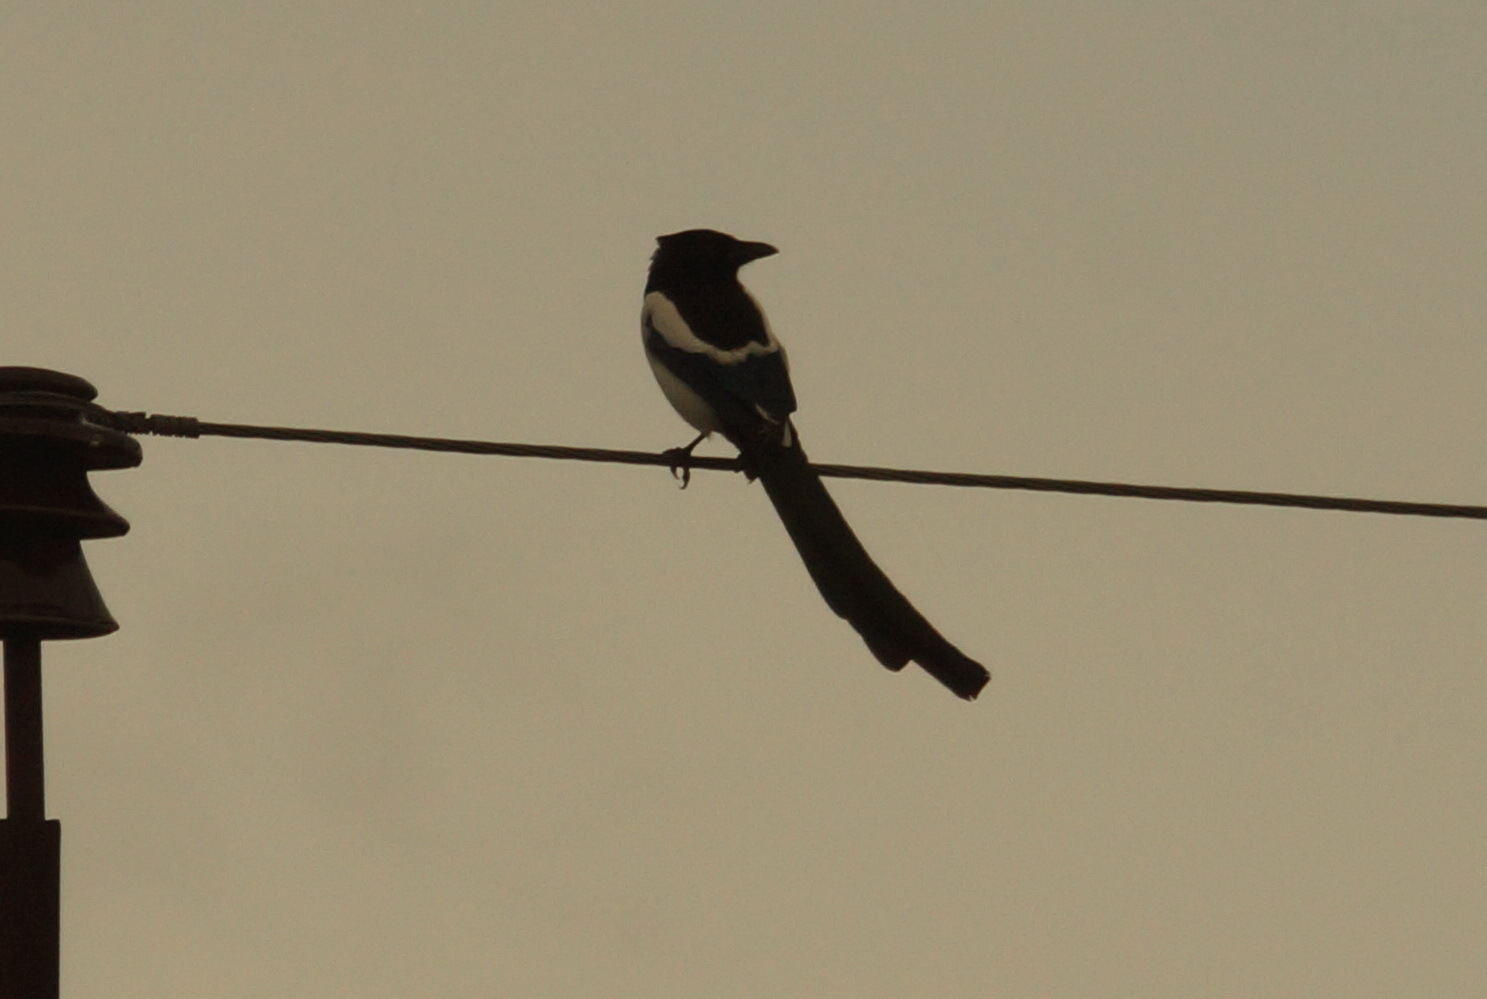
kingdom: Animalia
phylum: Chordata
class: Aves
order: Passeriformes
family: Corvidae
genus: Pica
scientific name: Pica pica
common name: Eurasian magpie
